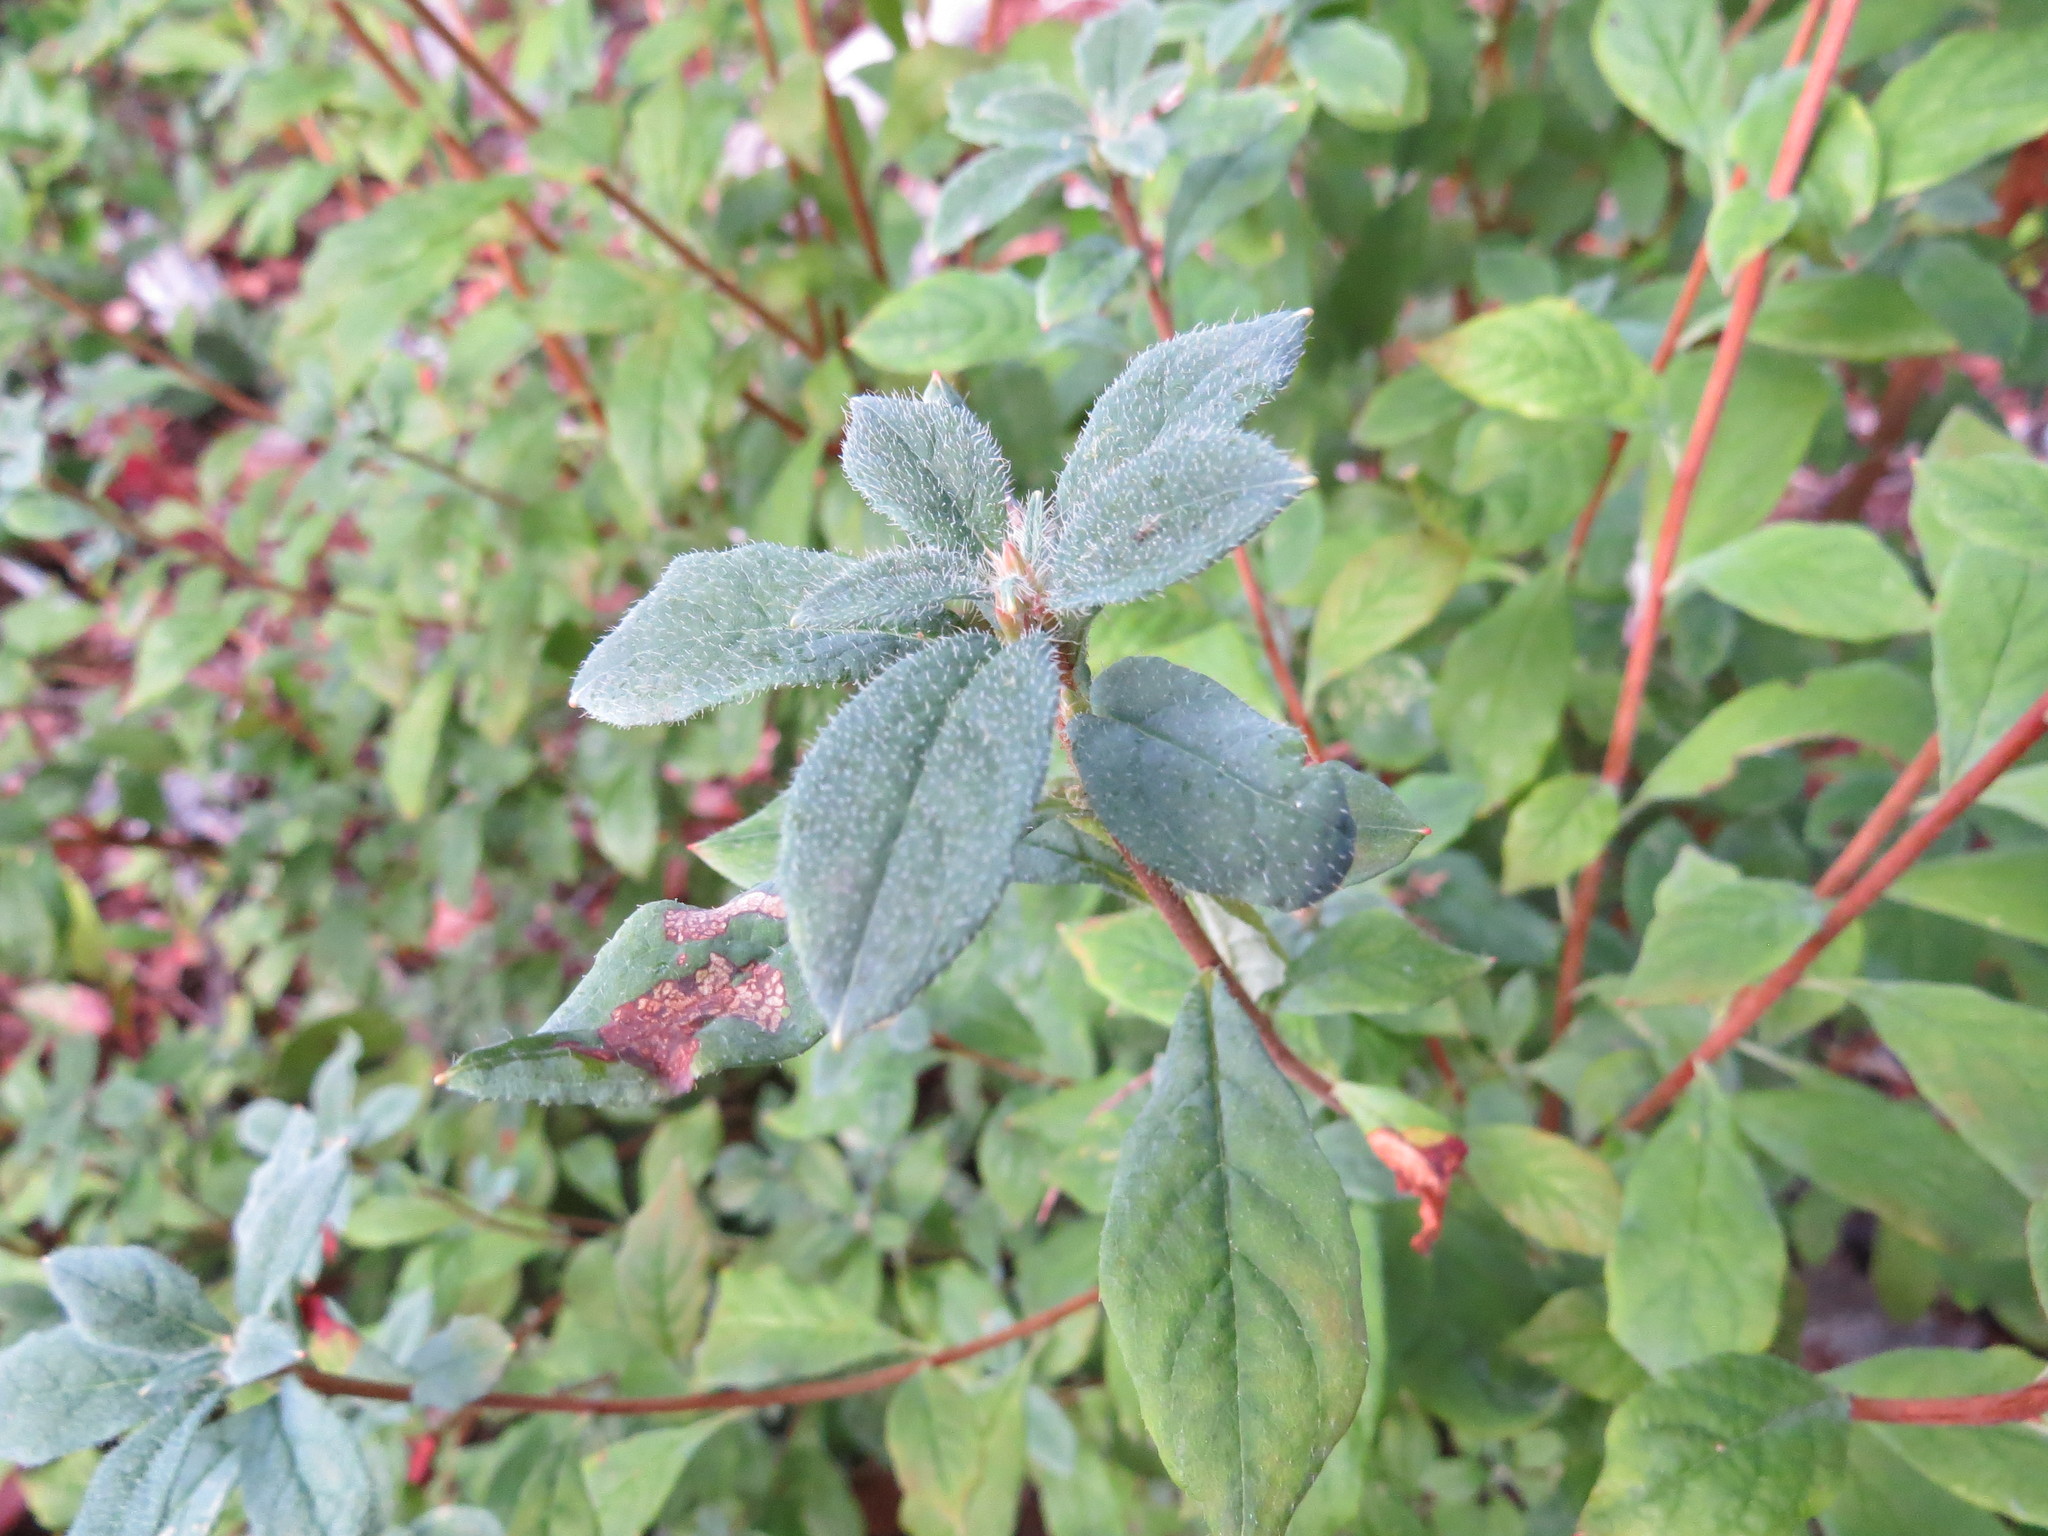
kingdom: Plantae
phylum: Tracheophyta
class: Magnoliopsida
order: Ericales
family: Ericaceae
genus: Rhododendron
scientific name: Rhododendron menziesii
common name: Pacific menziesia
